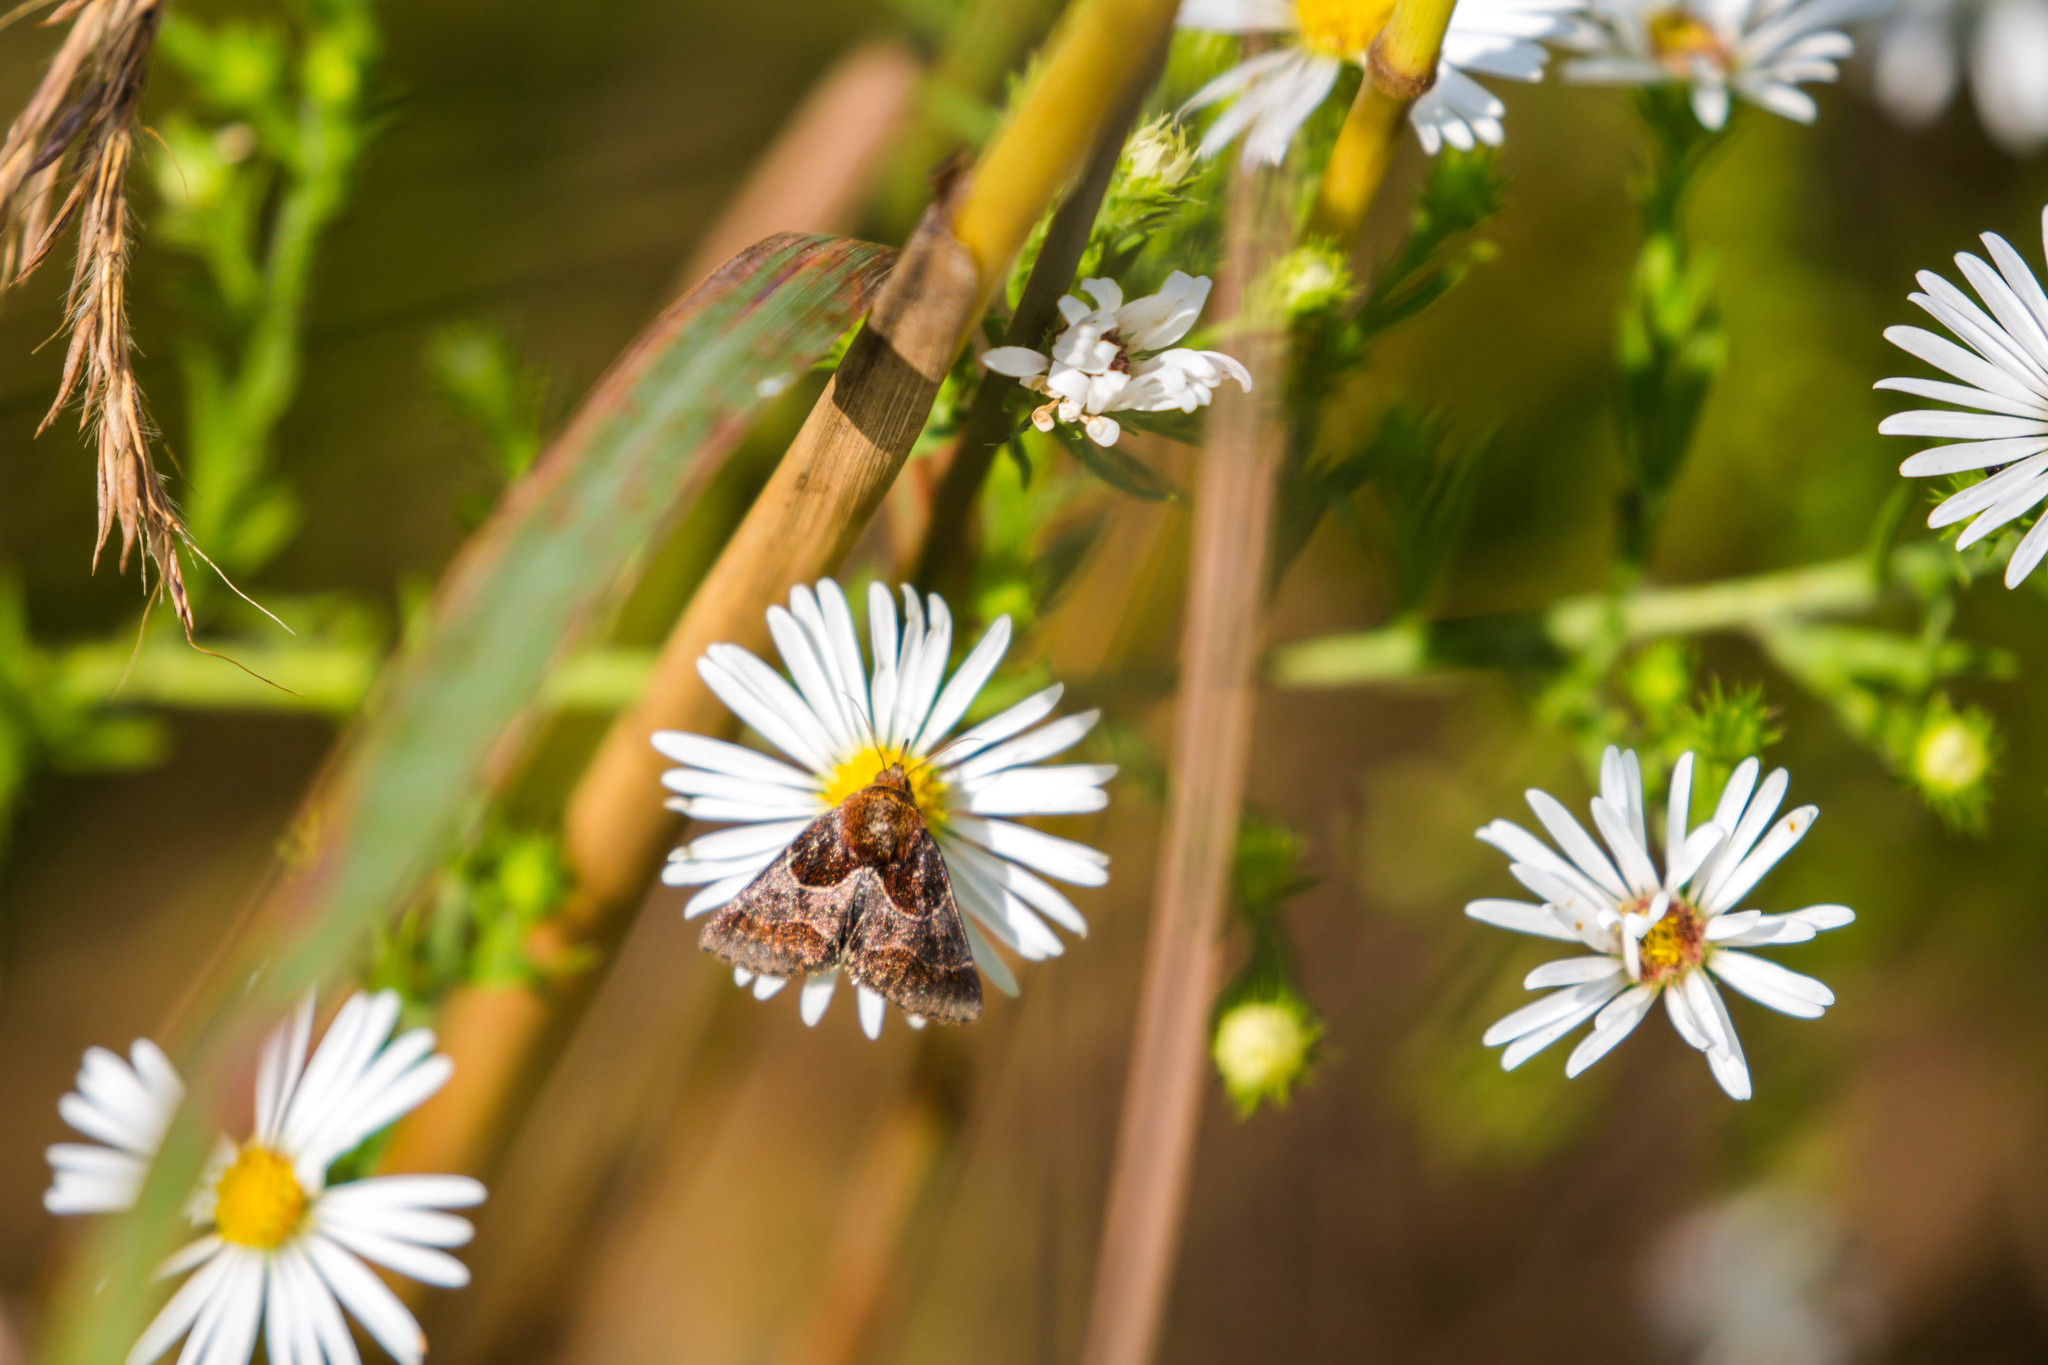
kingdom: Animalia
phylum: Arthropoda
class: Insecta
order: Lepidoptera
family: Noctuidae
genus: Schinia
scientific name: Schinia arcigera
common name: Arcigera flower moth
